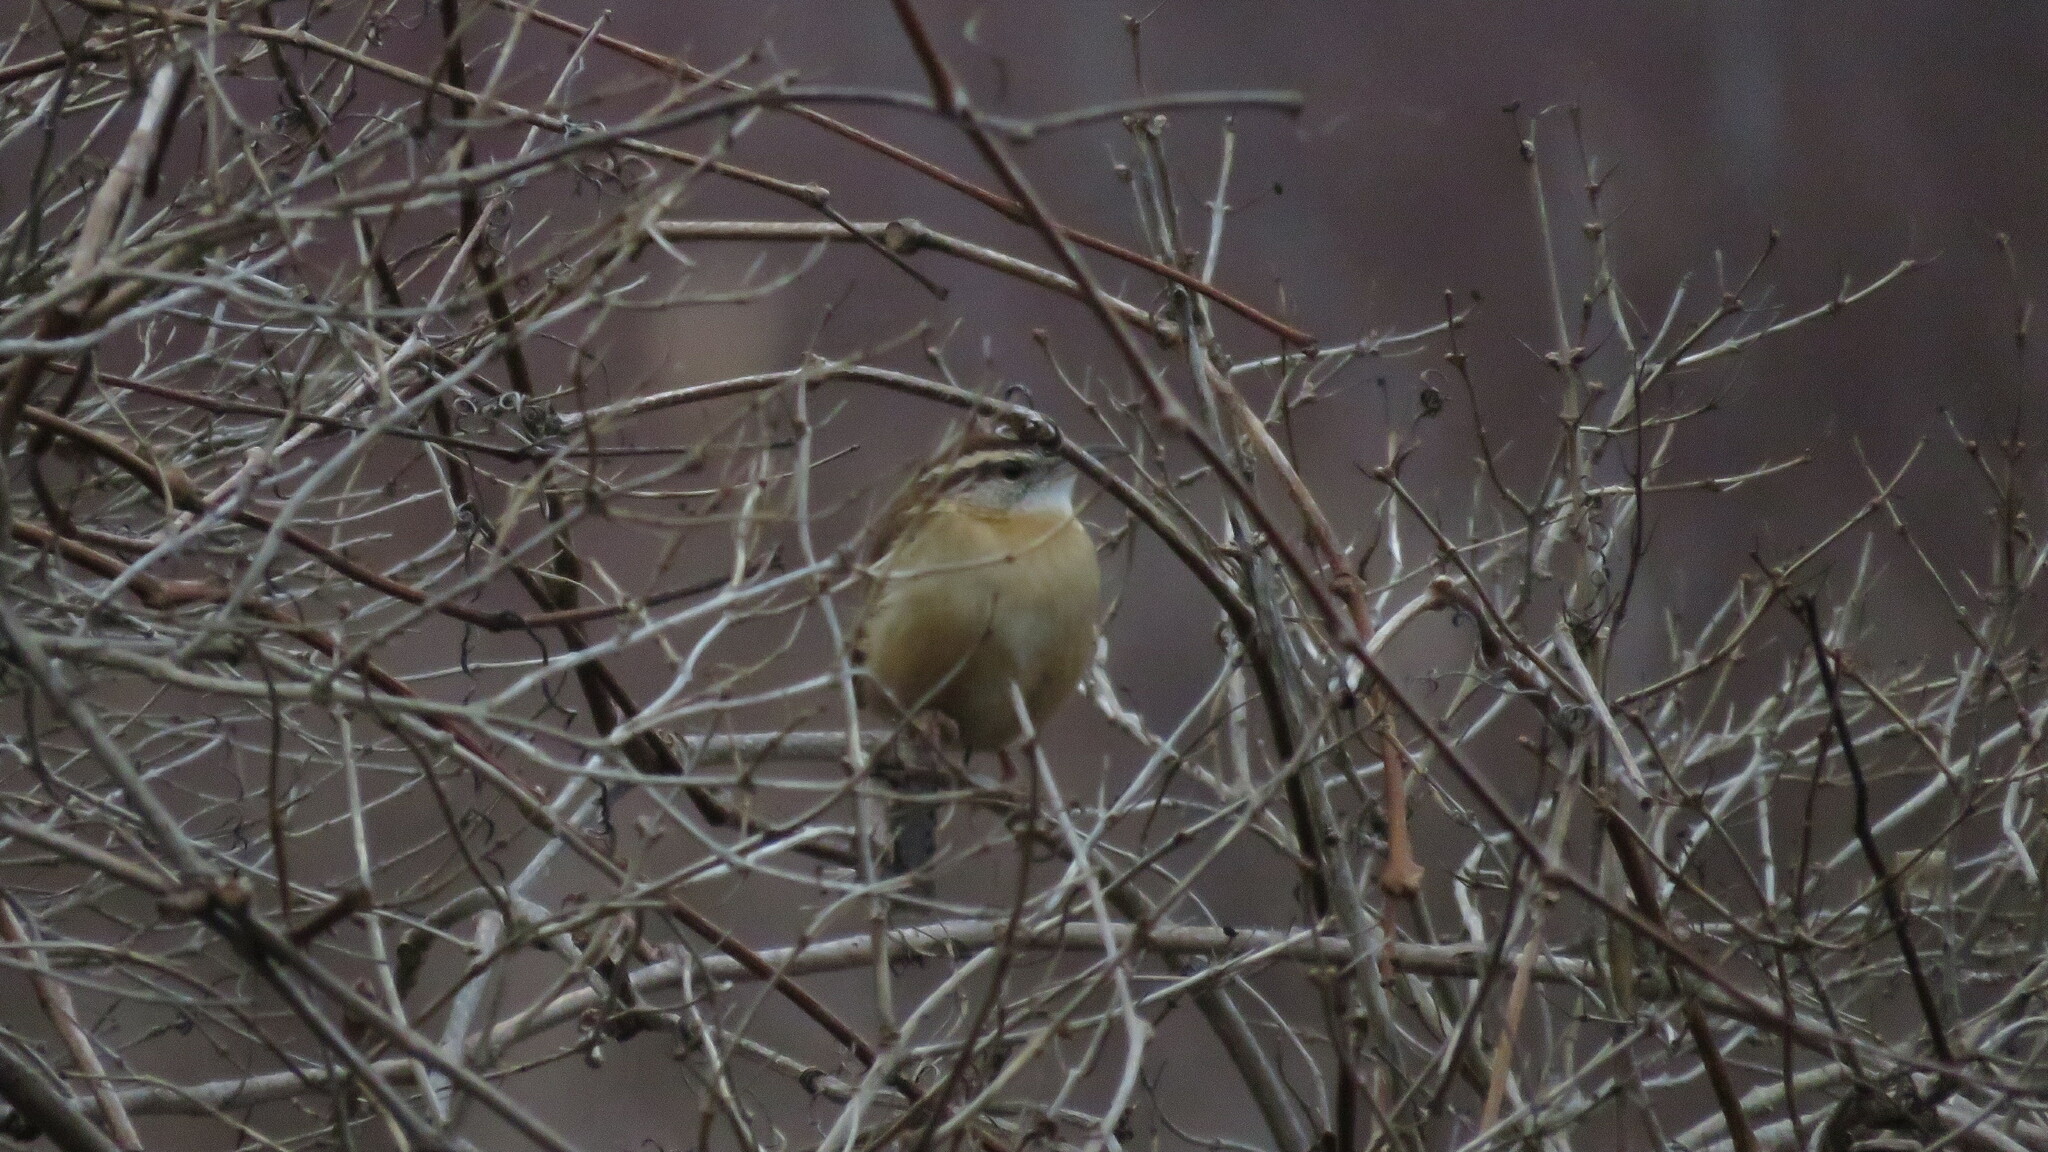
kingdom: Animalia
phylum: Chordata
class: Aves
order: Passeriformes
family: Troglodytidae
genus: Thryothorus
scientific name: Thryothorus ludovicianus
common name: Carolina wren
